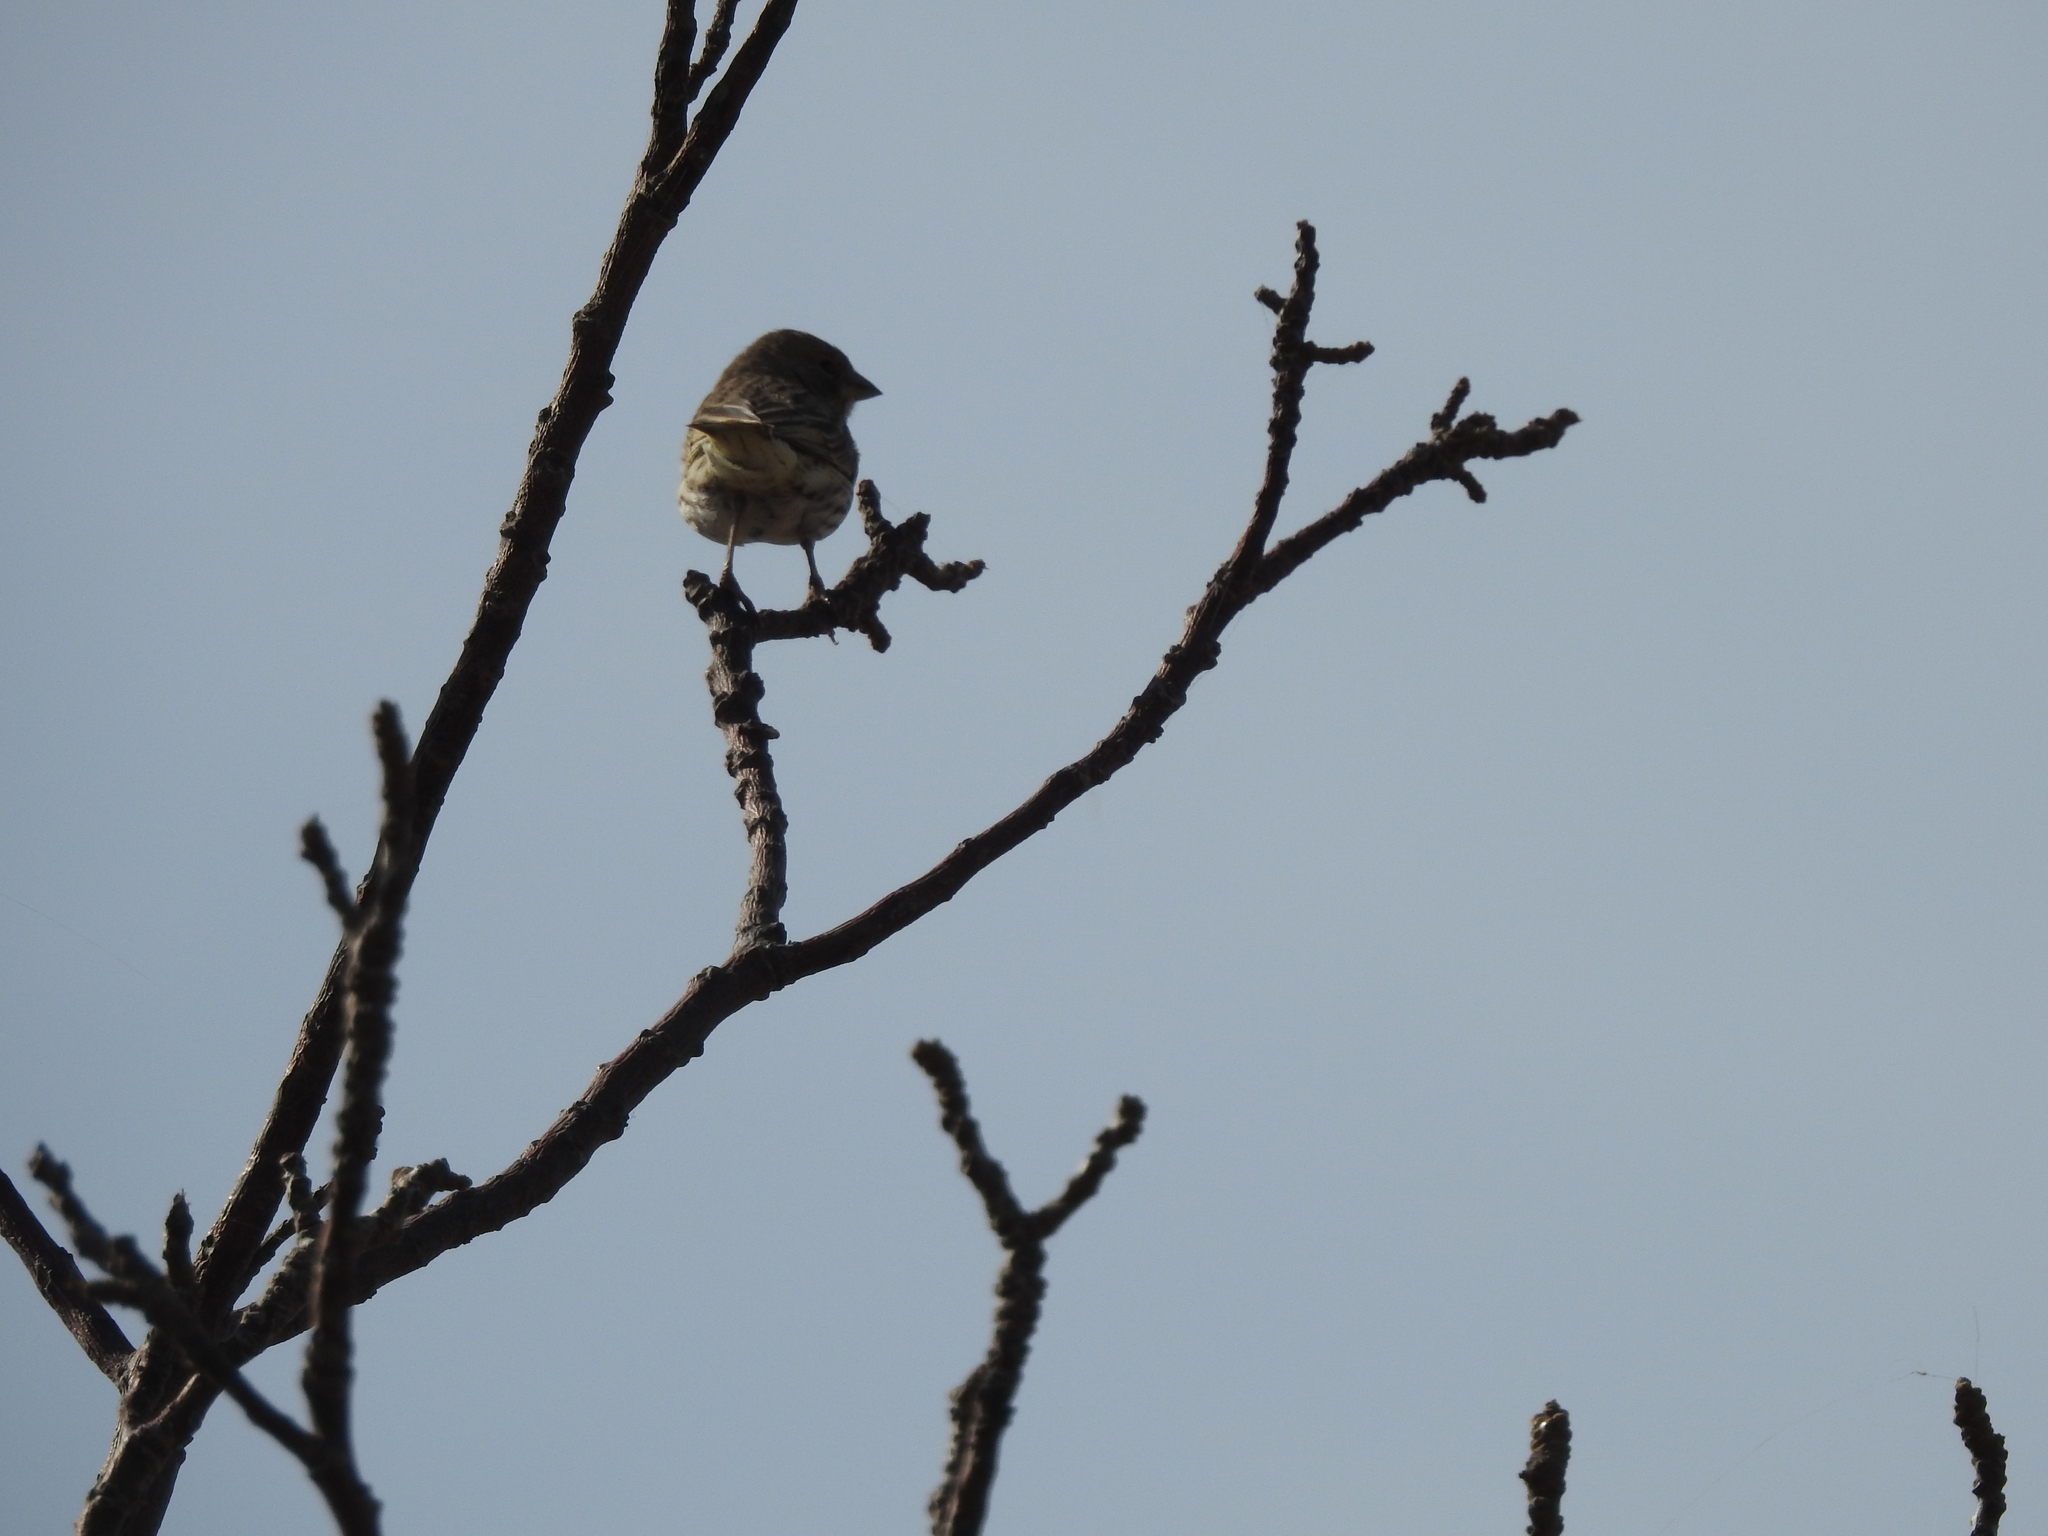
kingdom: Animalia
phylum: Chordata
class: Aves
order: Passeriformes
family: Thraupidae
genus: Sicalis
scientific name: Sicalis flaveola
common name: Saffron finch
